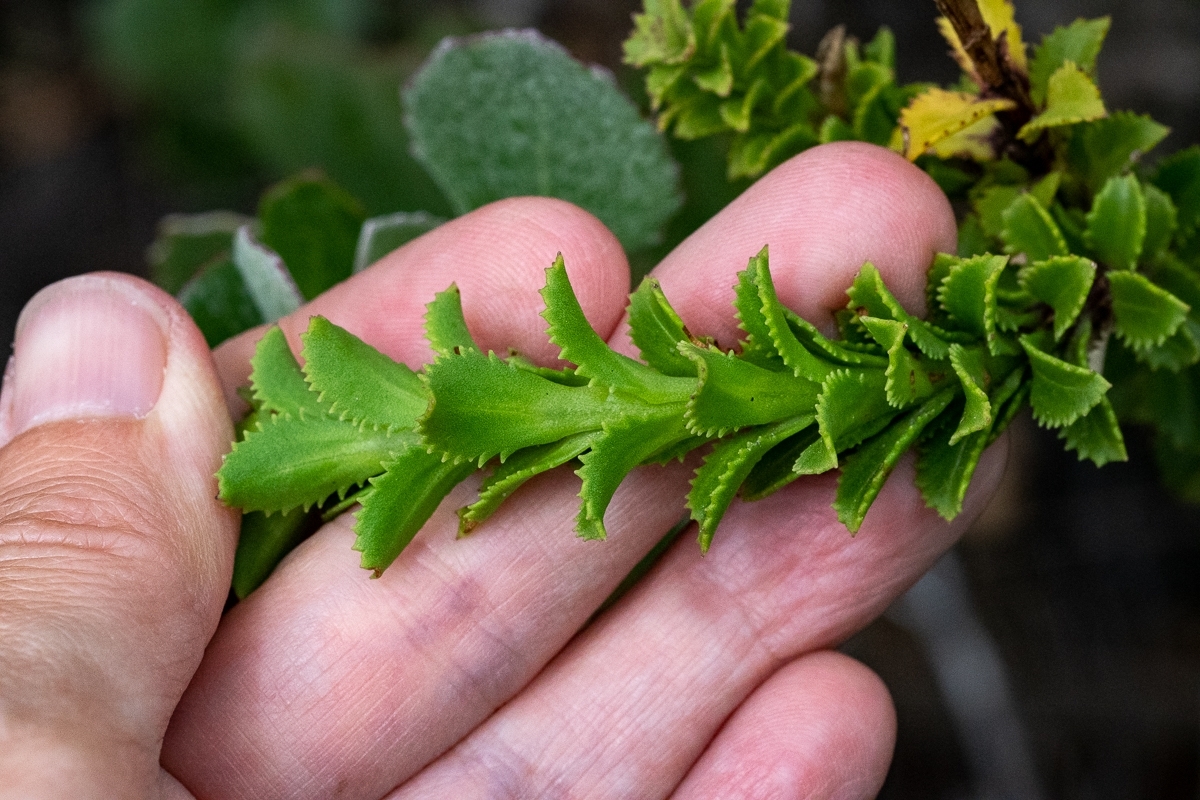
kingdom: Plantae
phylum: Tracheophyta
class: Magnoliopsida
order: Lamiales
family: Scrophulariaceae
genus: Pseudoselago
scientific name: Pseudoselago serrata
